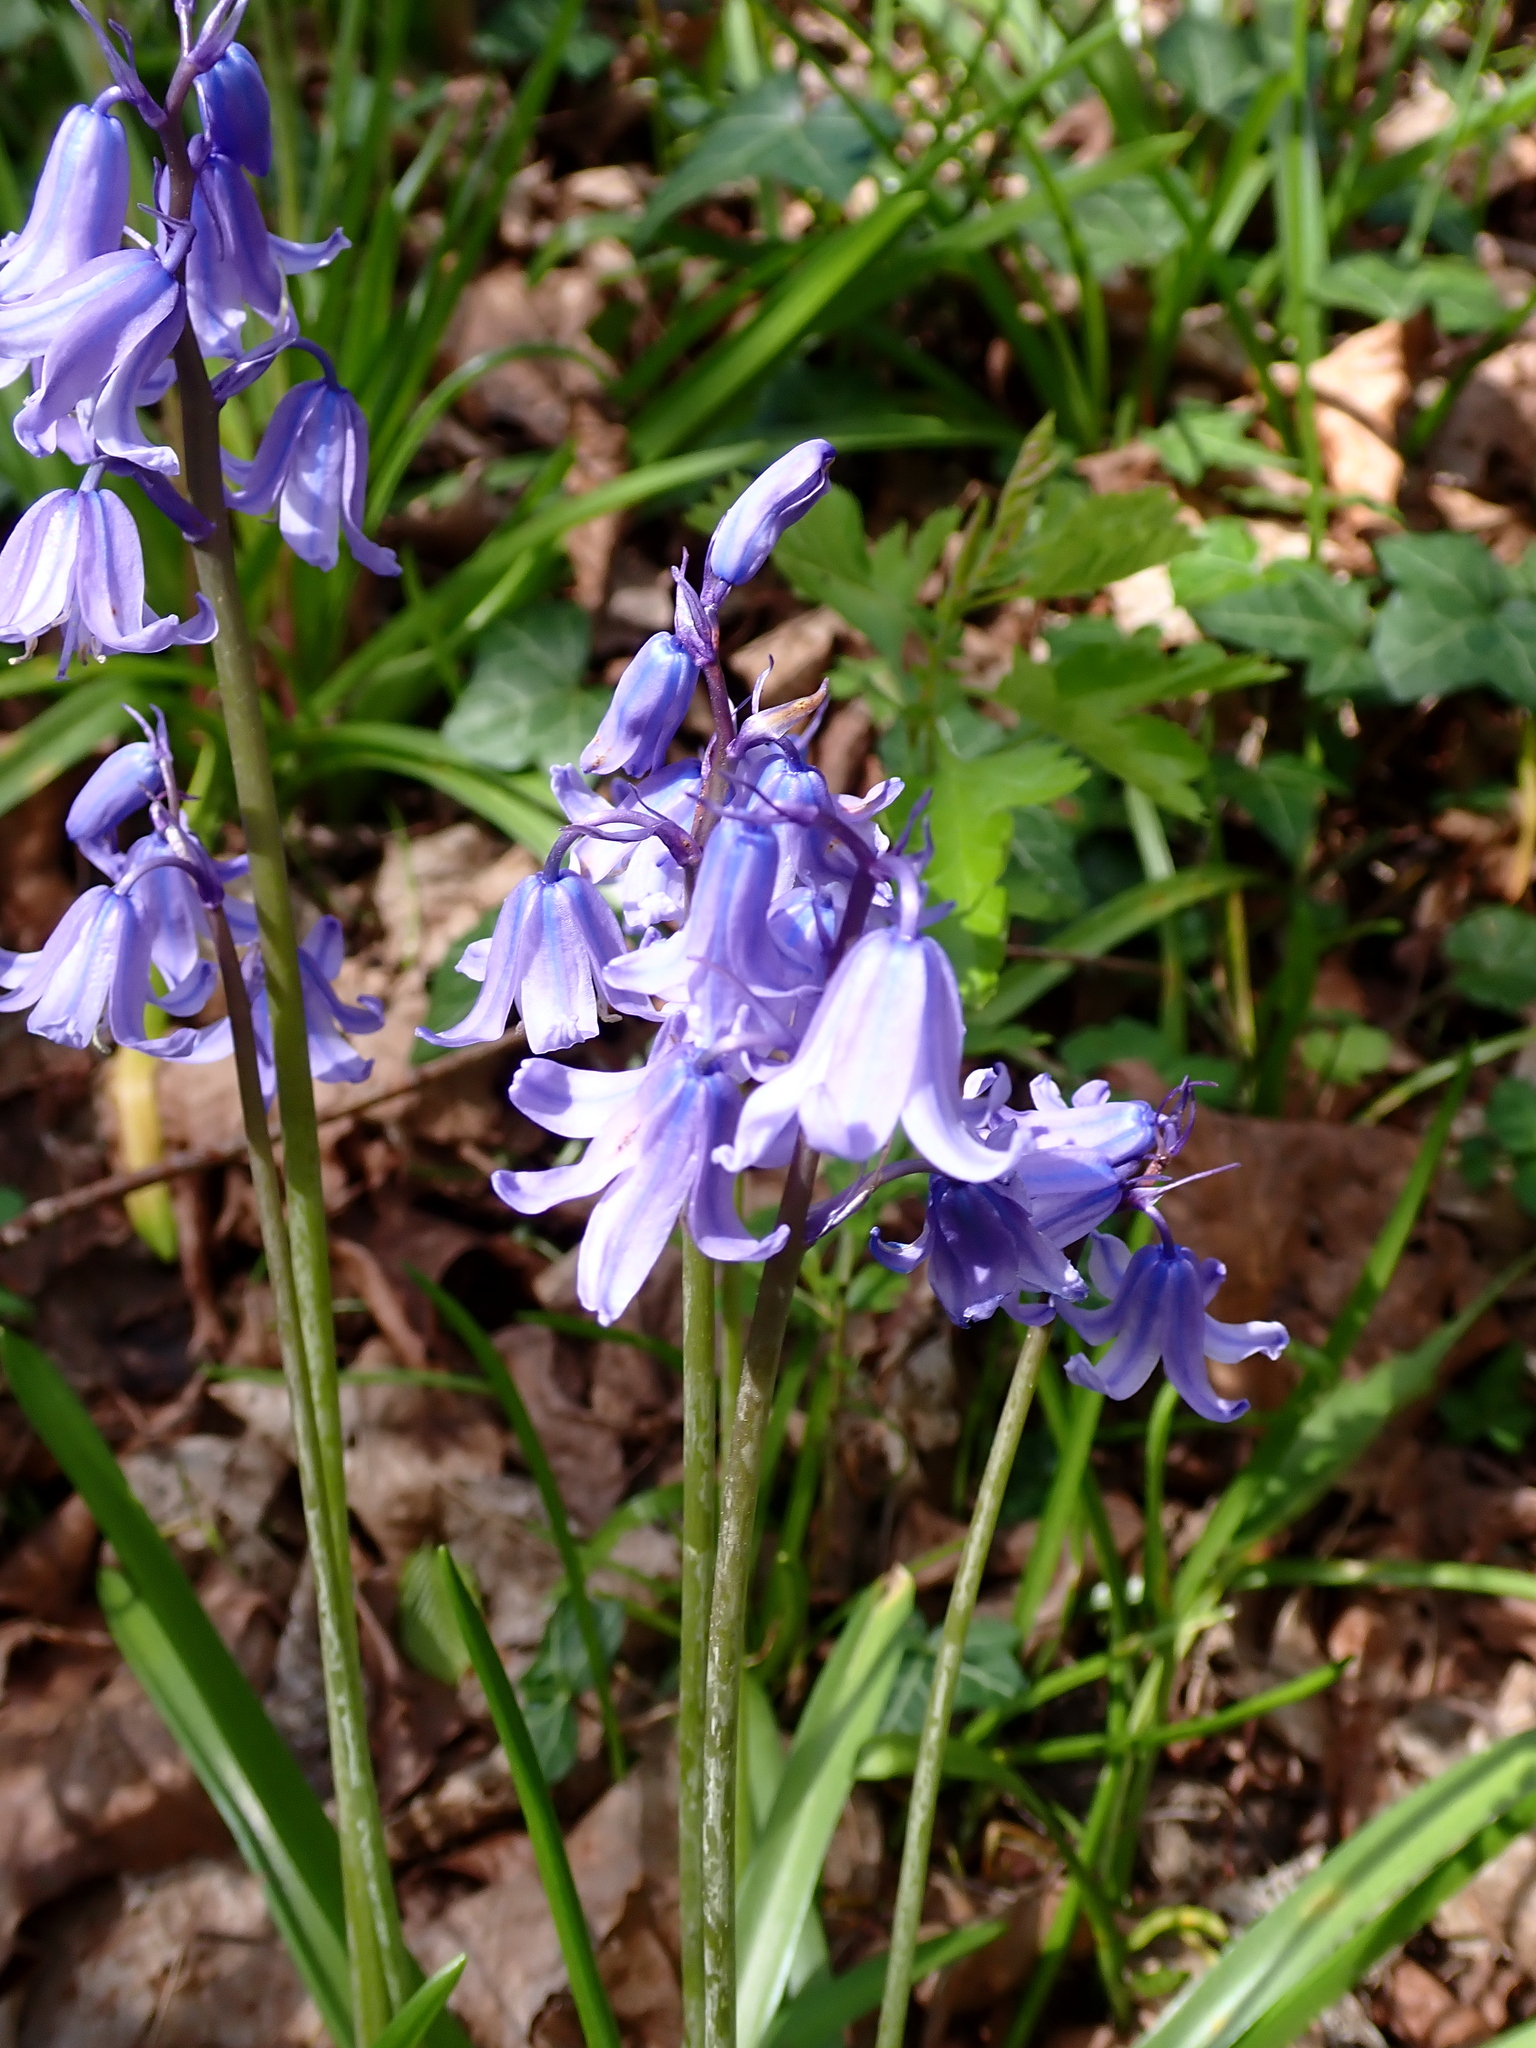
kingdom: Plantae
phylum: Tracheophyta
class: Liliopsida
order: Asparagales
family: Asparagaceae
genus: Hyacinthoides
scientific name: Hyacinthoides massartiana
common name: Hyacinthoides
